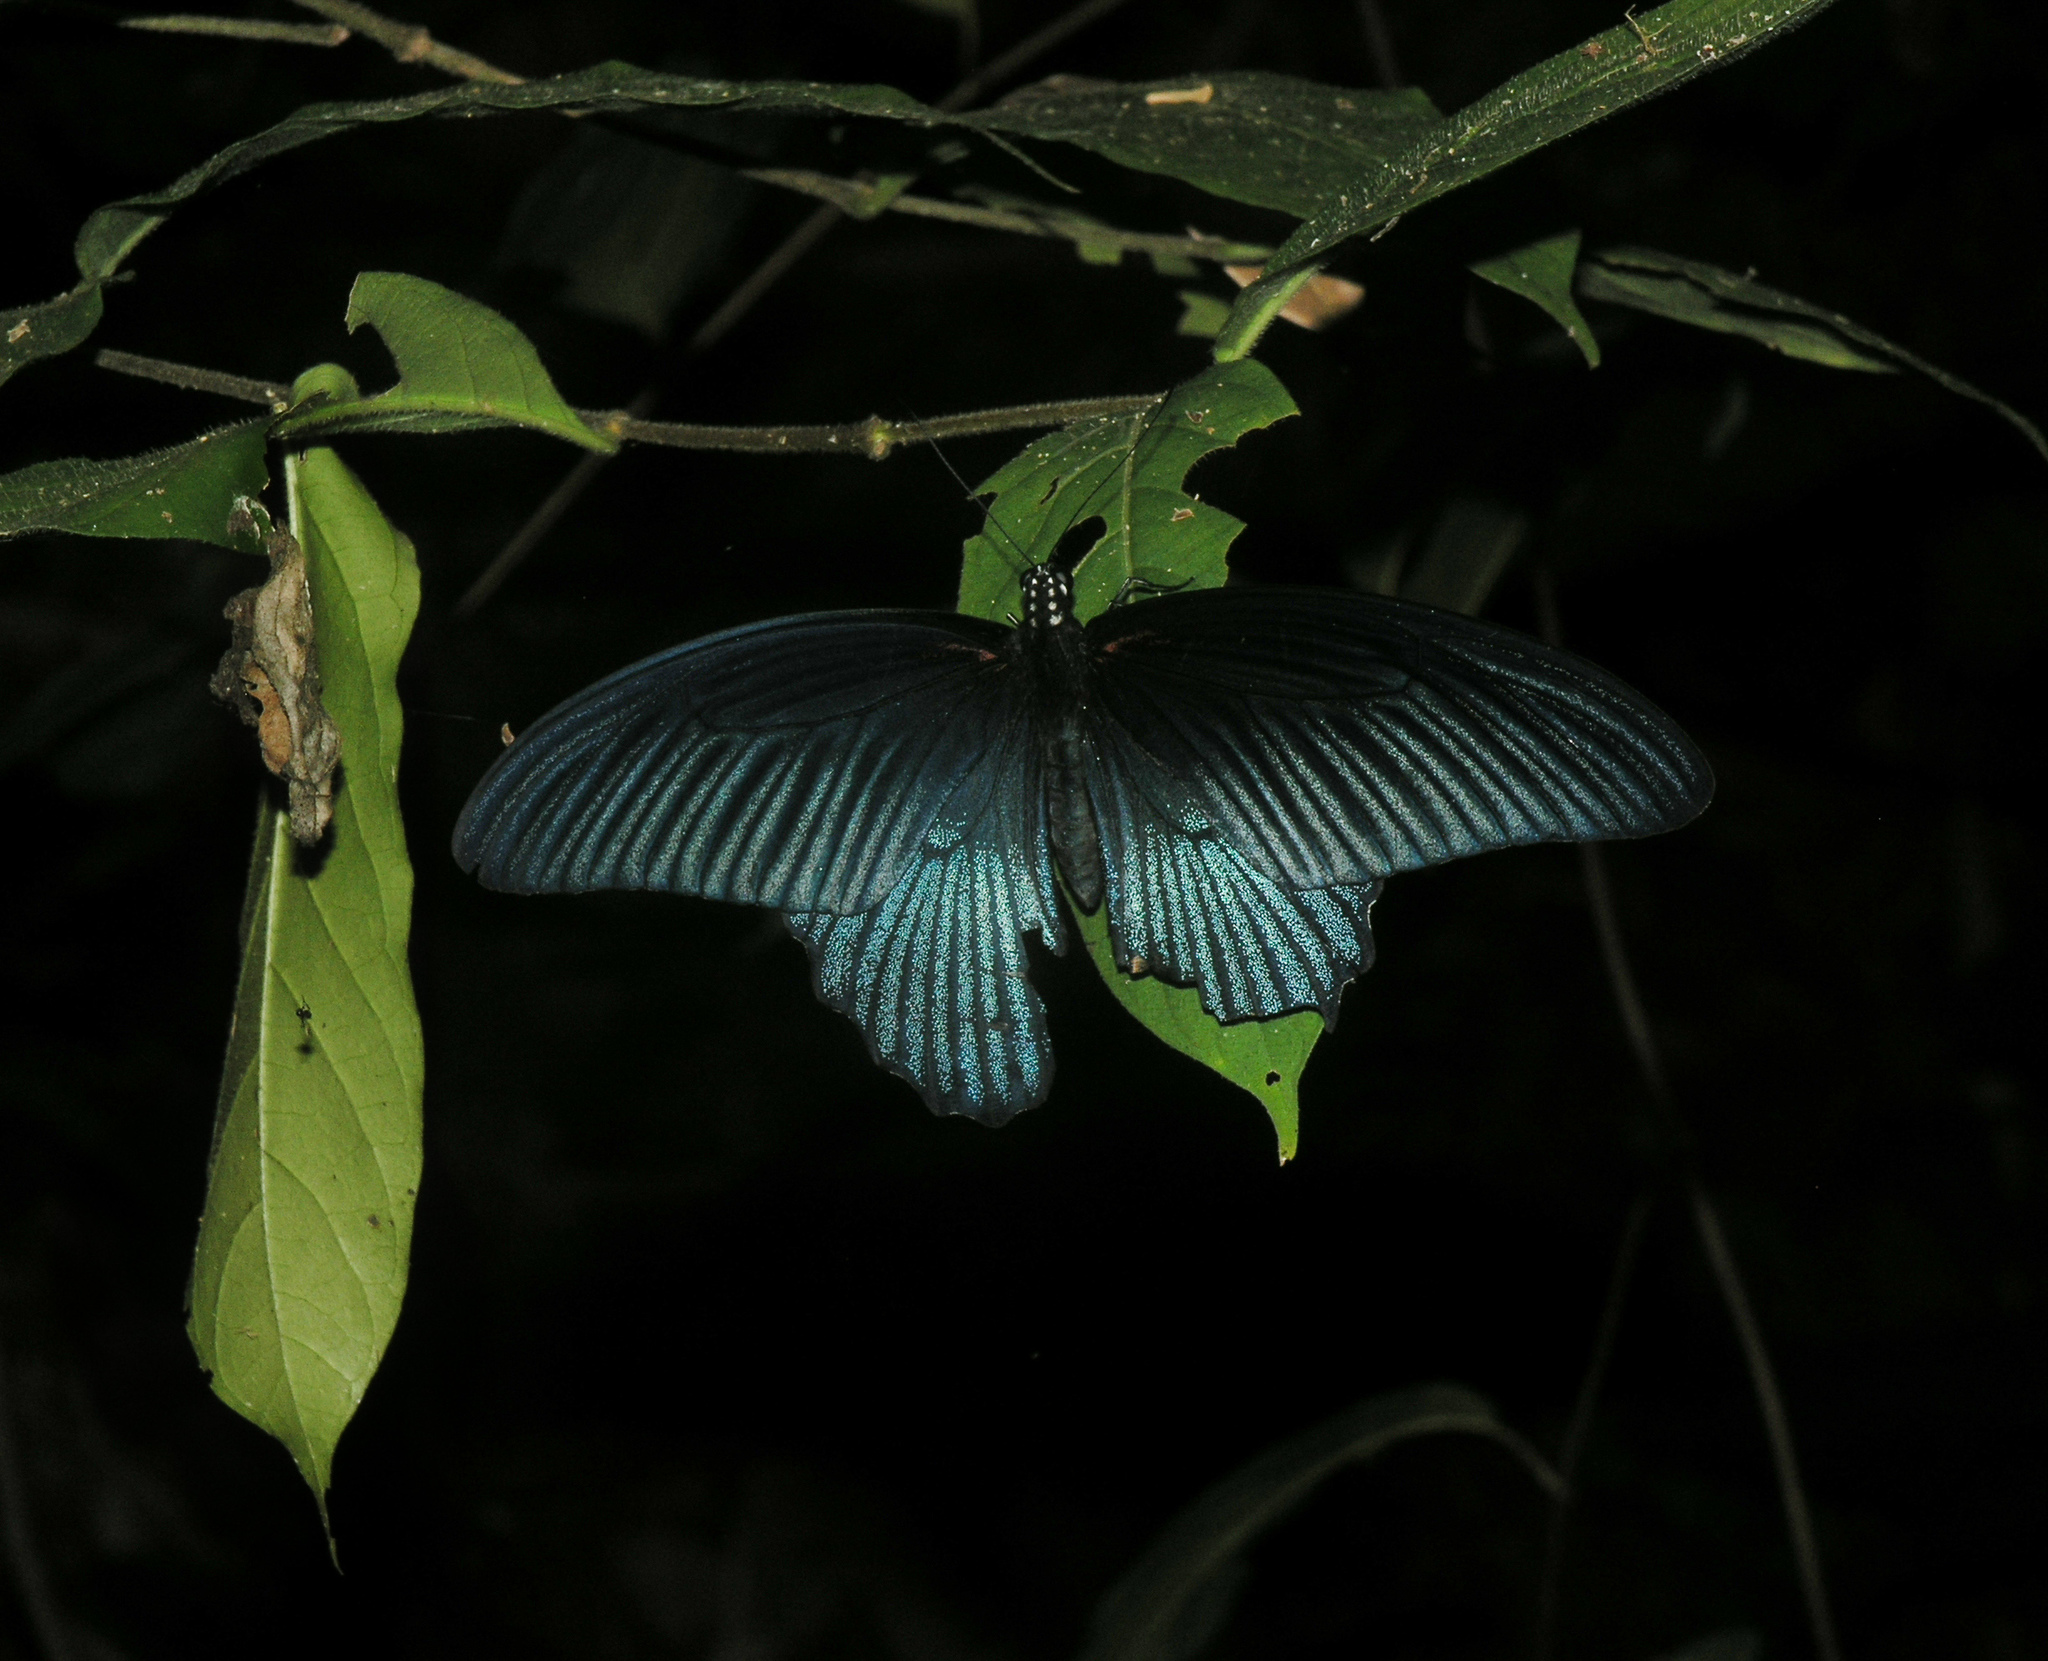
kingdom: Animalia
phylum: Arthropoda
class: Insecta
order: Lepidoptera
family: Papilionidae
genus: Papilio
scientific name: Papilio memnon
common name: Great mormon
